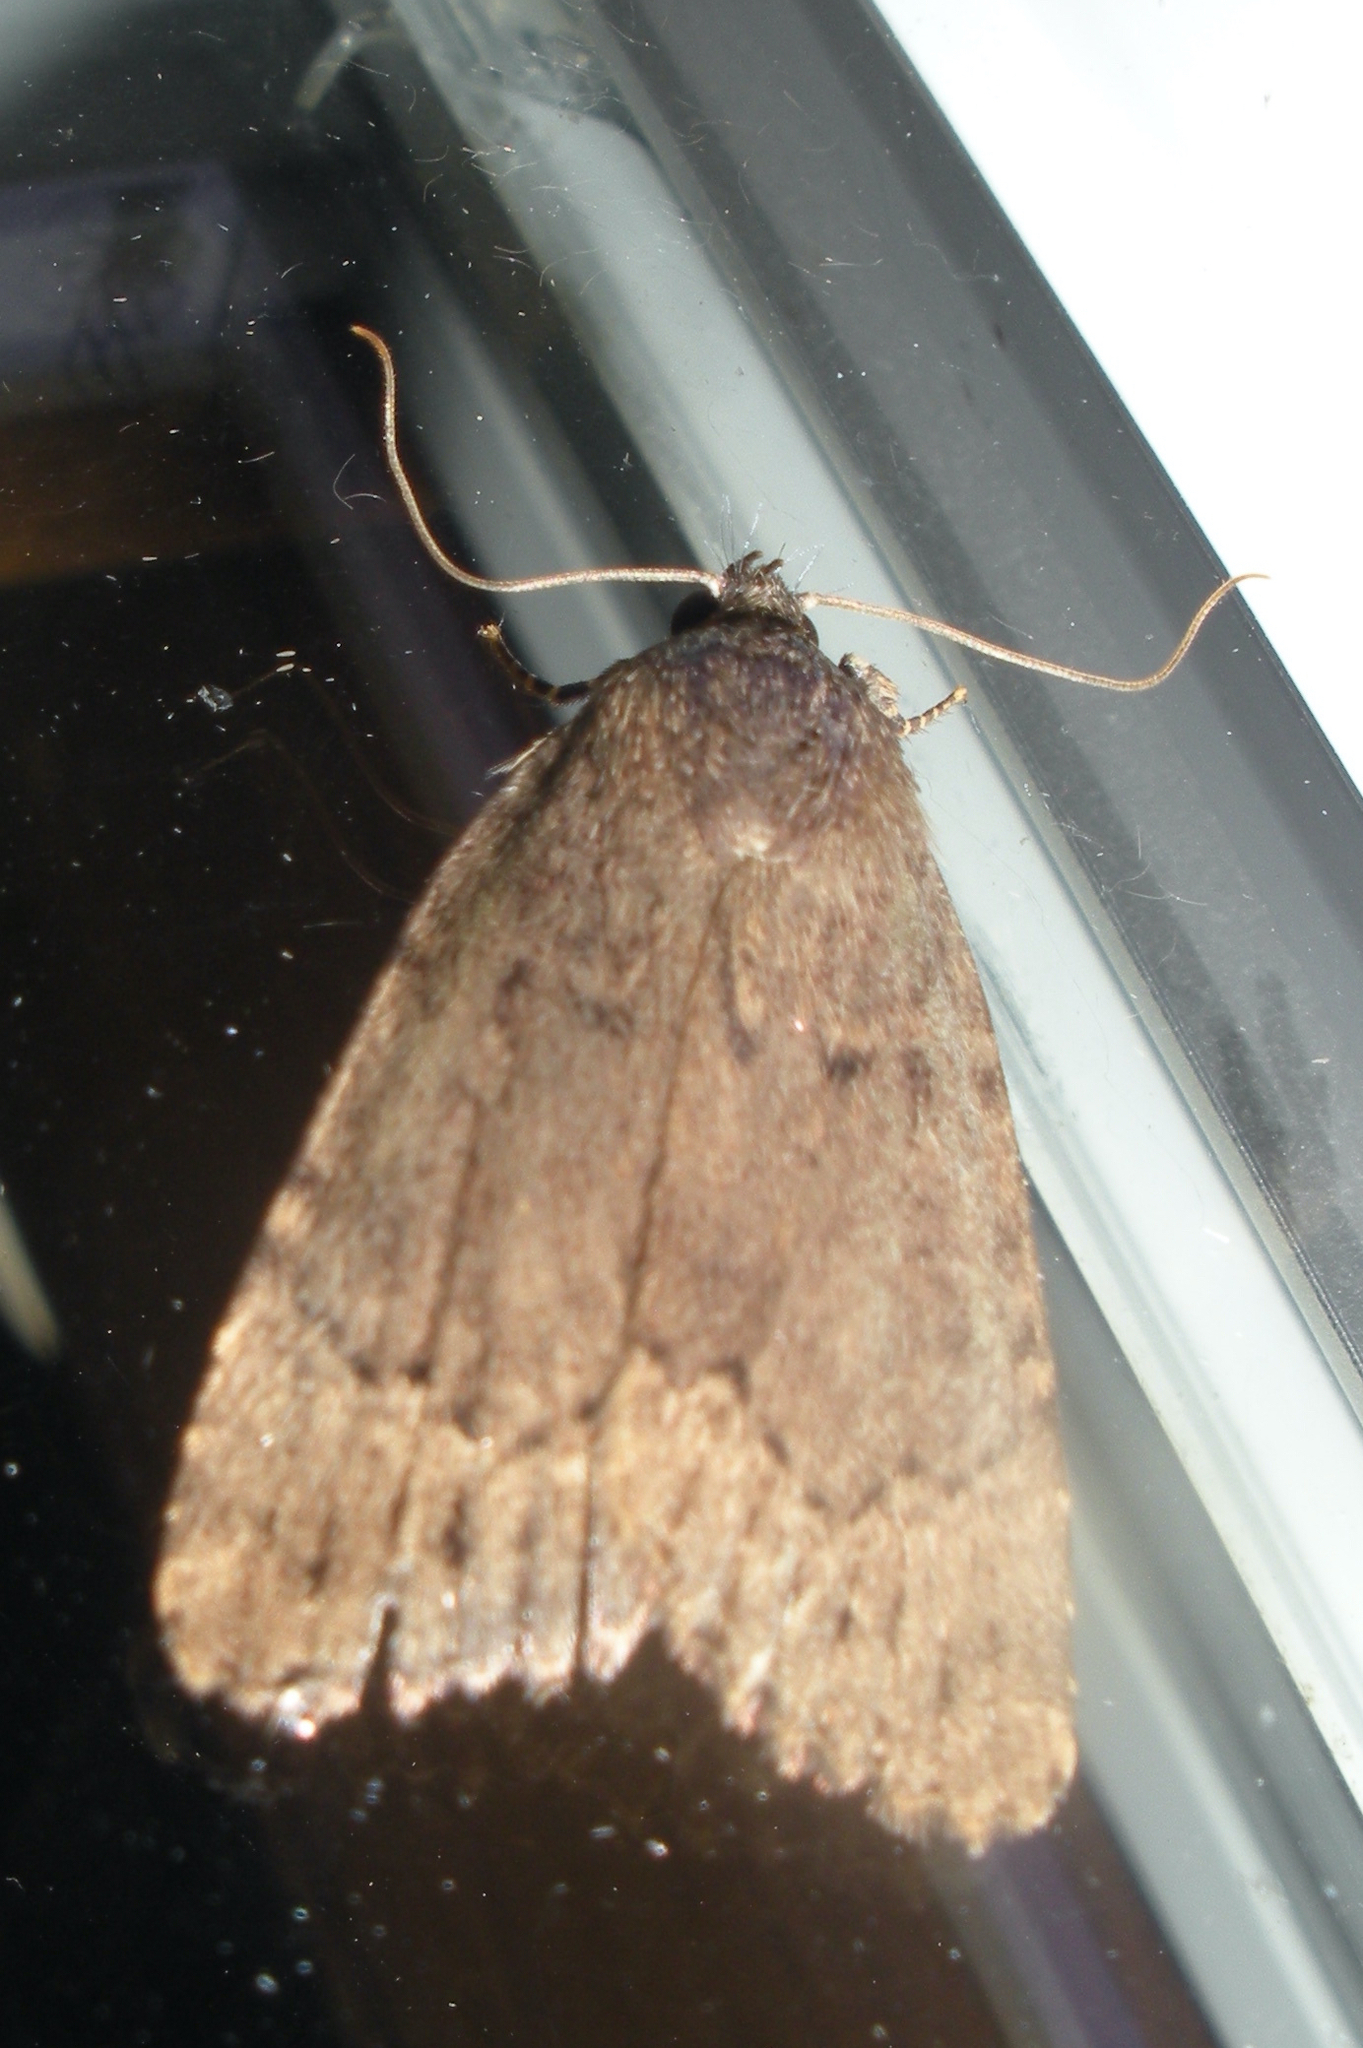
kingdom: Animalia
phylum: Arthropoda
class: Insecta
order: Lepidoptera
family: Noctuidae
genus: Amphipyra
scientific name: Amphipyra pyramidoides
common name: American copper underwing
